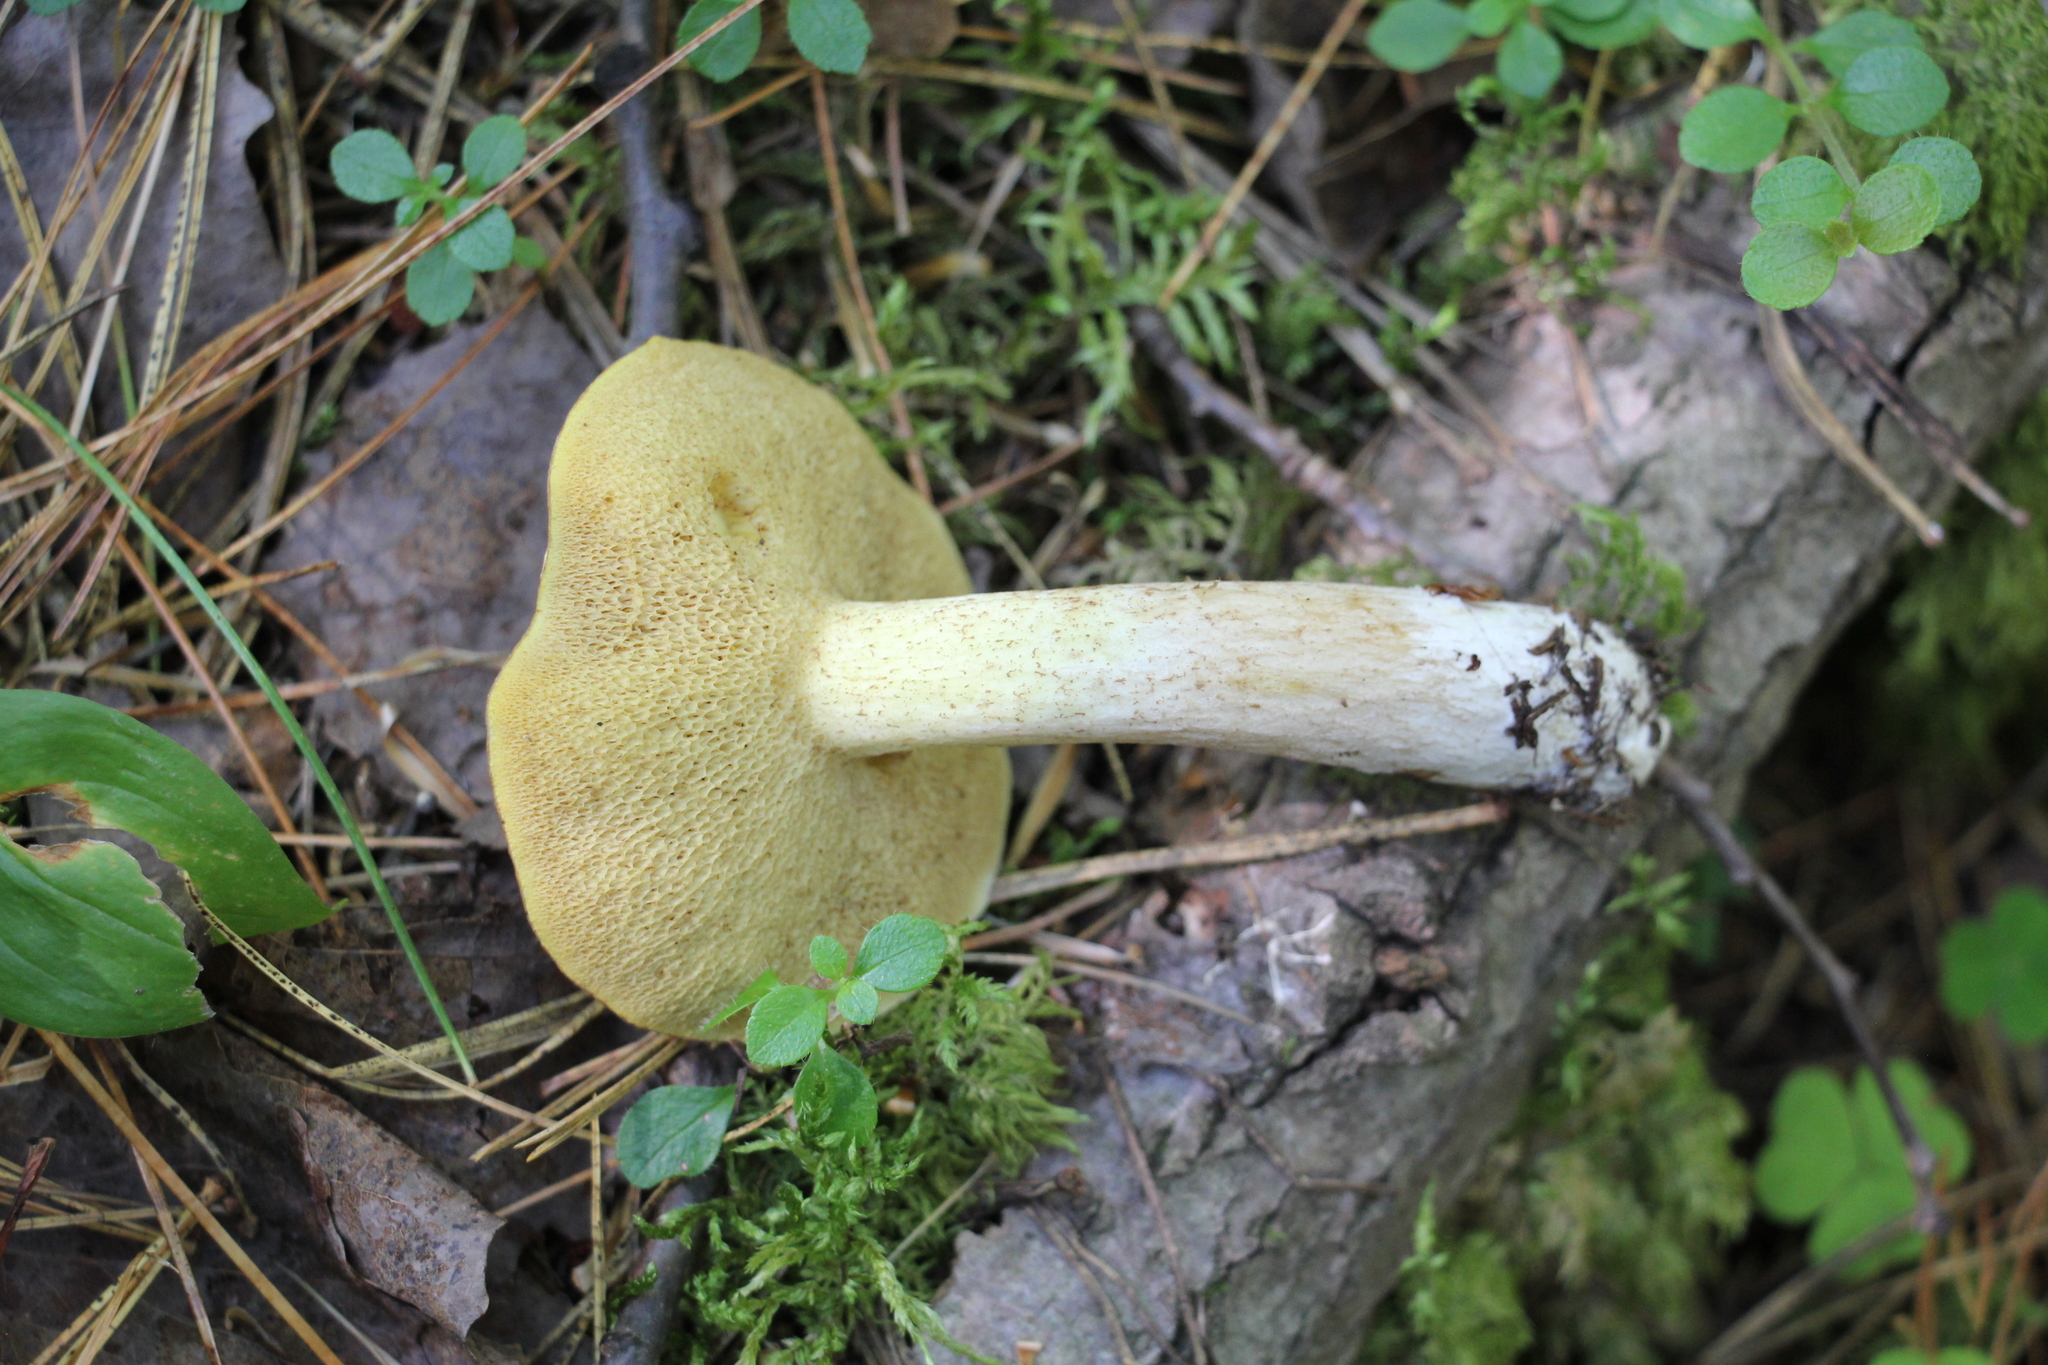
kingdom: Fungi
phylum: Basidiomycota
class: Agaricomycetes
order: Boletales
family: Suillaceae
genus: Suillus
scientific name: Suillus placidus
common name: Slippery white bolete
